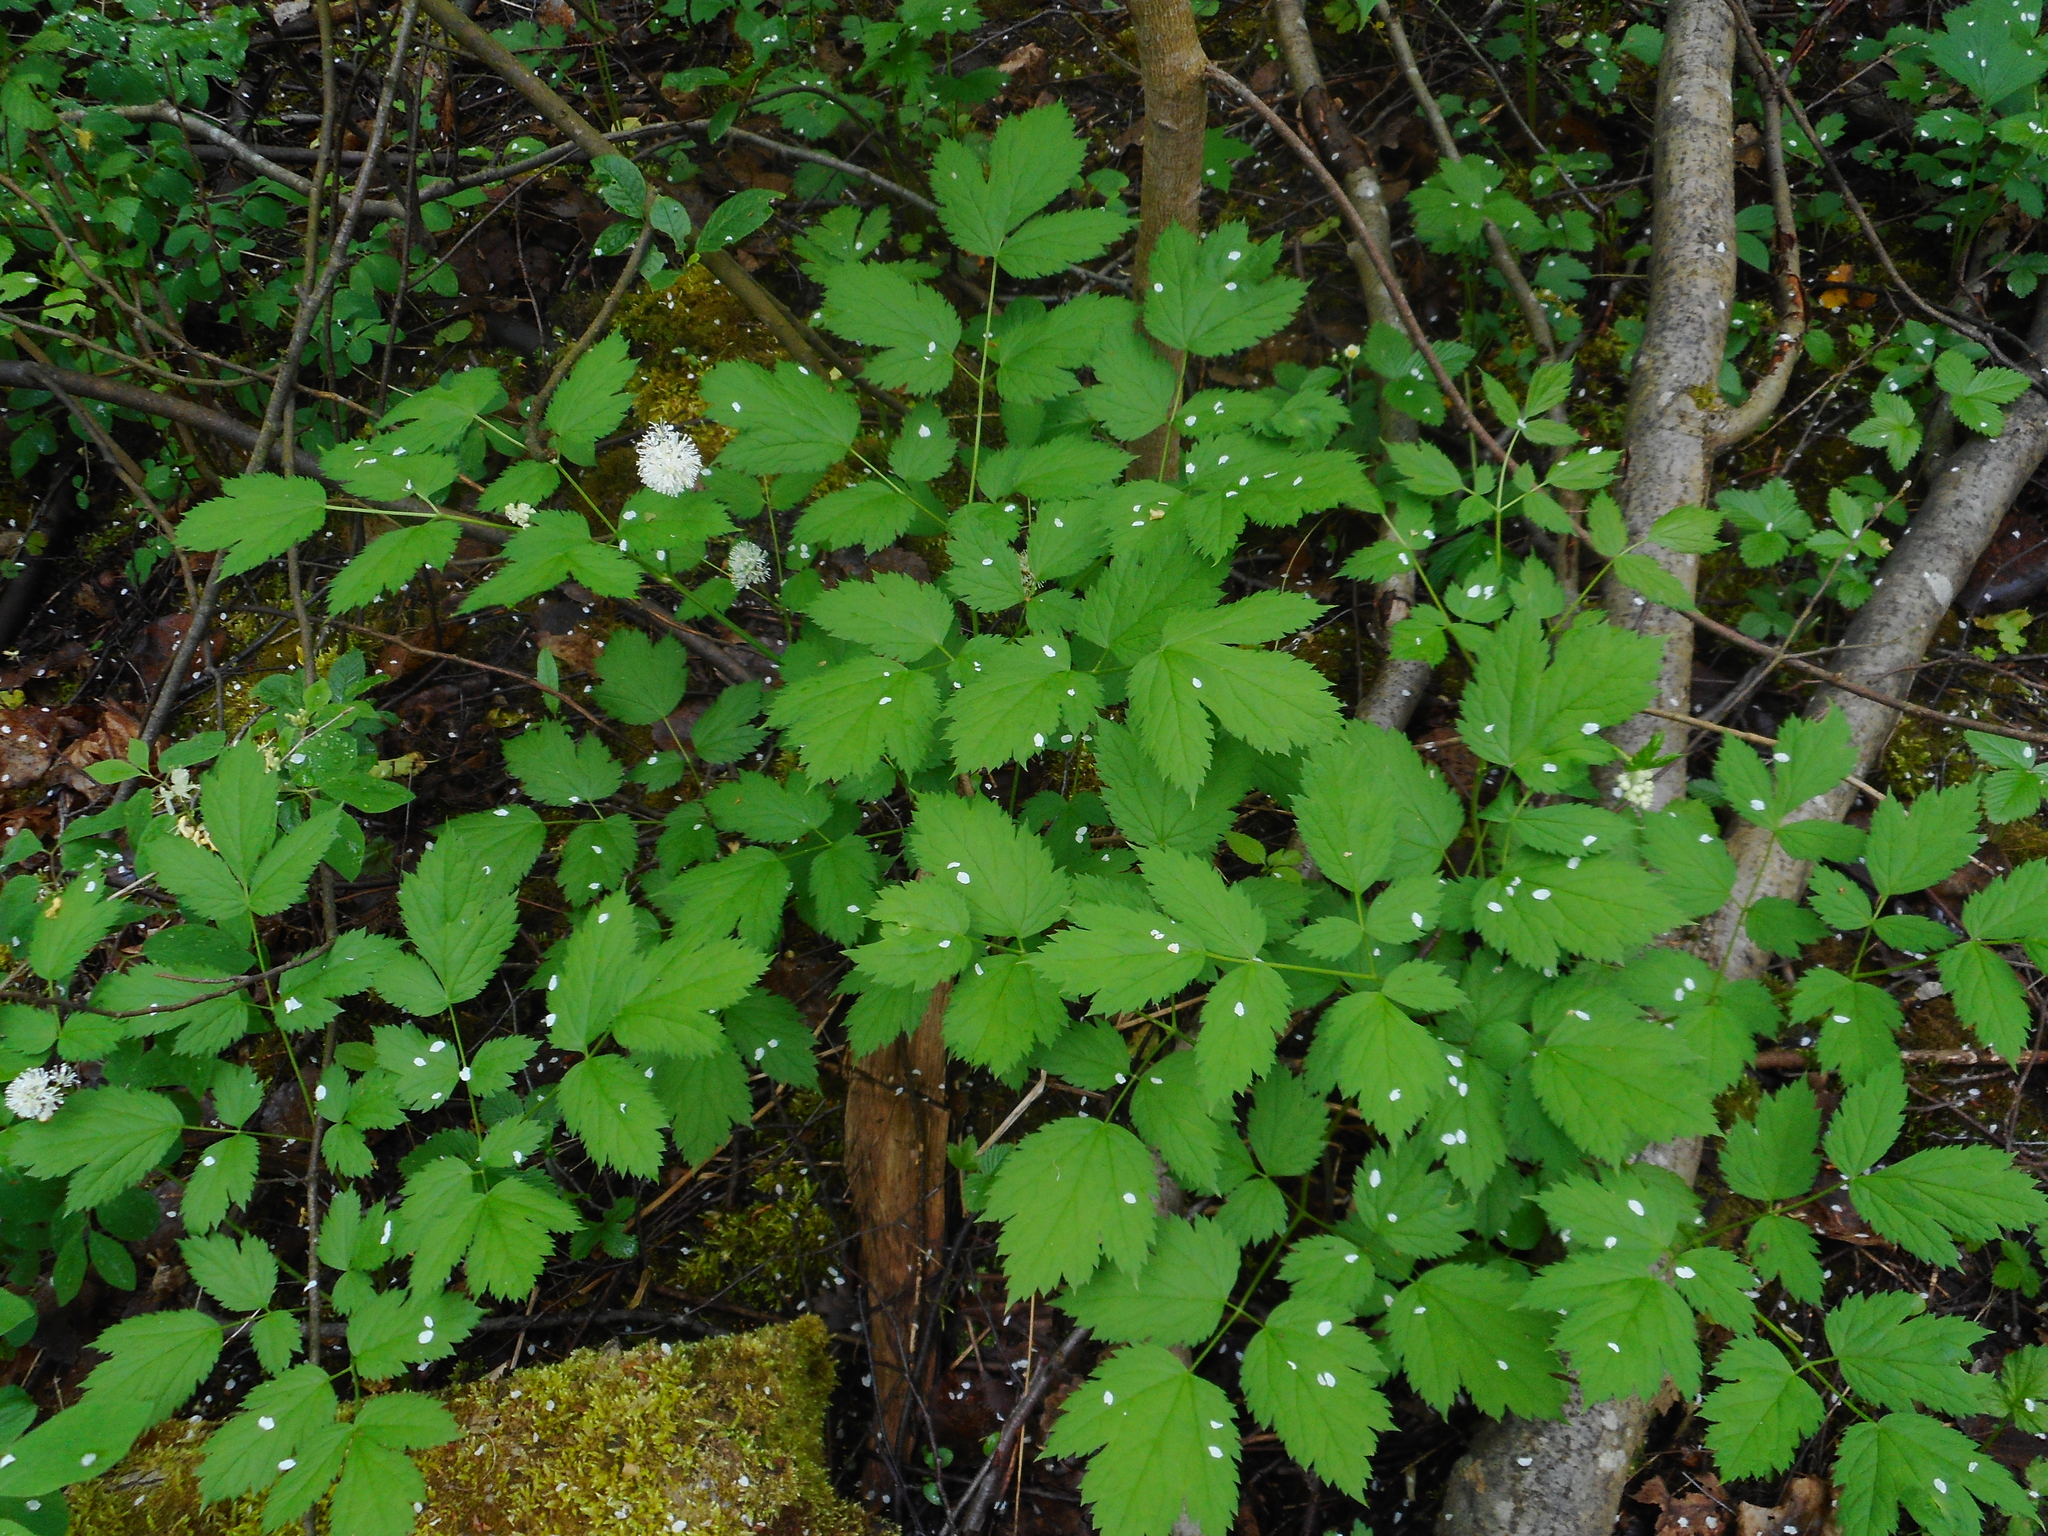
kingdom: Plantae
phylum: Tracheophyta
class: Magnoliopsida
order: Ranunculales
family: Ranunculaceae
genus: Actaea
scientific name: Actaea spicata
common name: Baneberry
